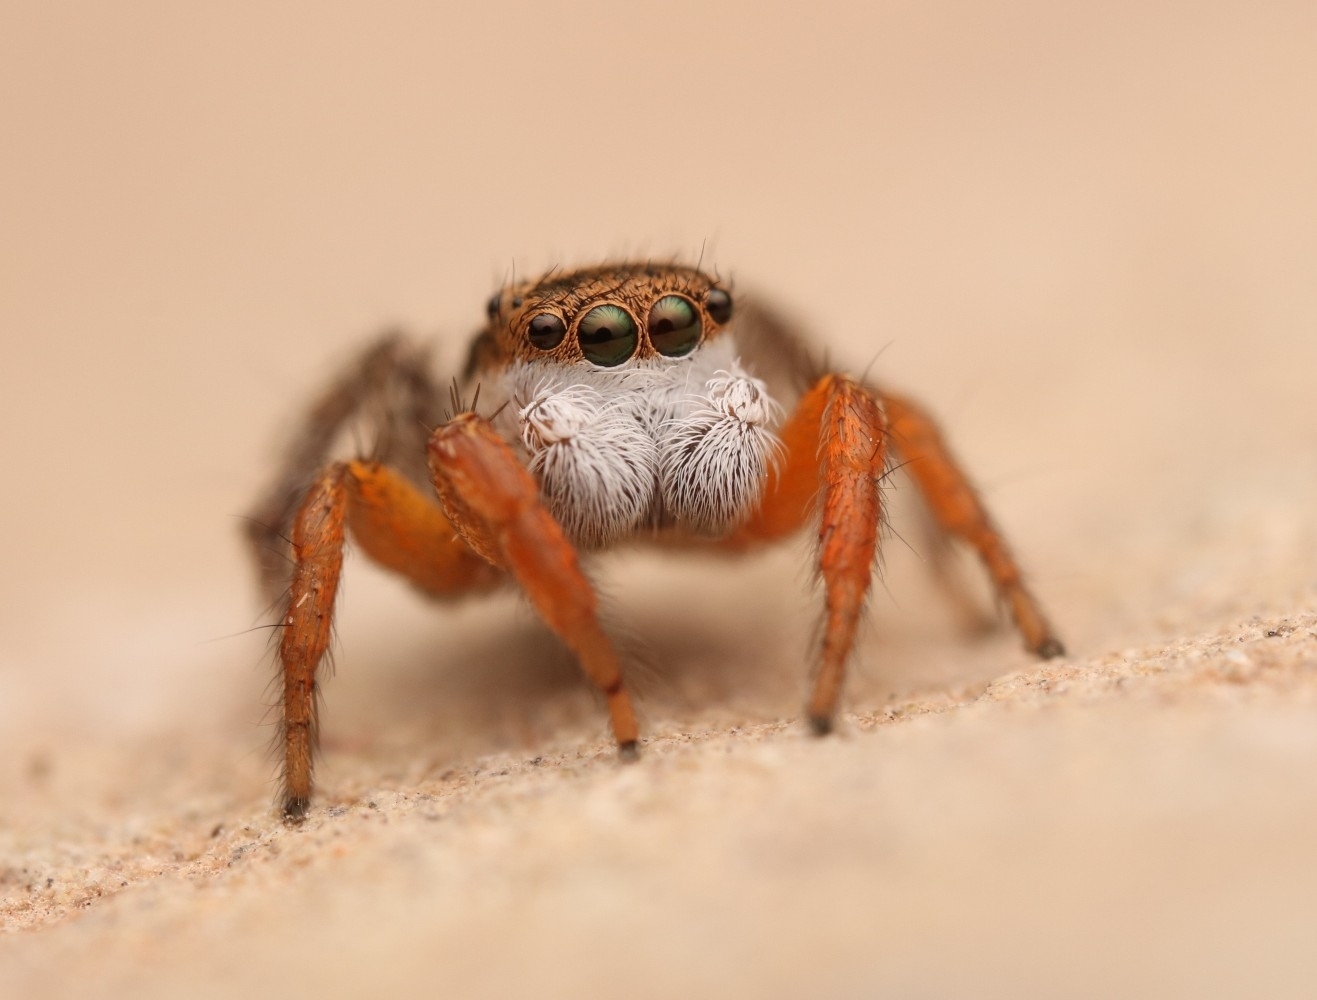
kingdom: Animalia
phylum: Arthropoda
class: Arachnida
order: Araneae
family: Salticidae
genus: Habronattus
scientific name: Habronattus icenoglei
